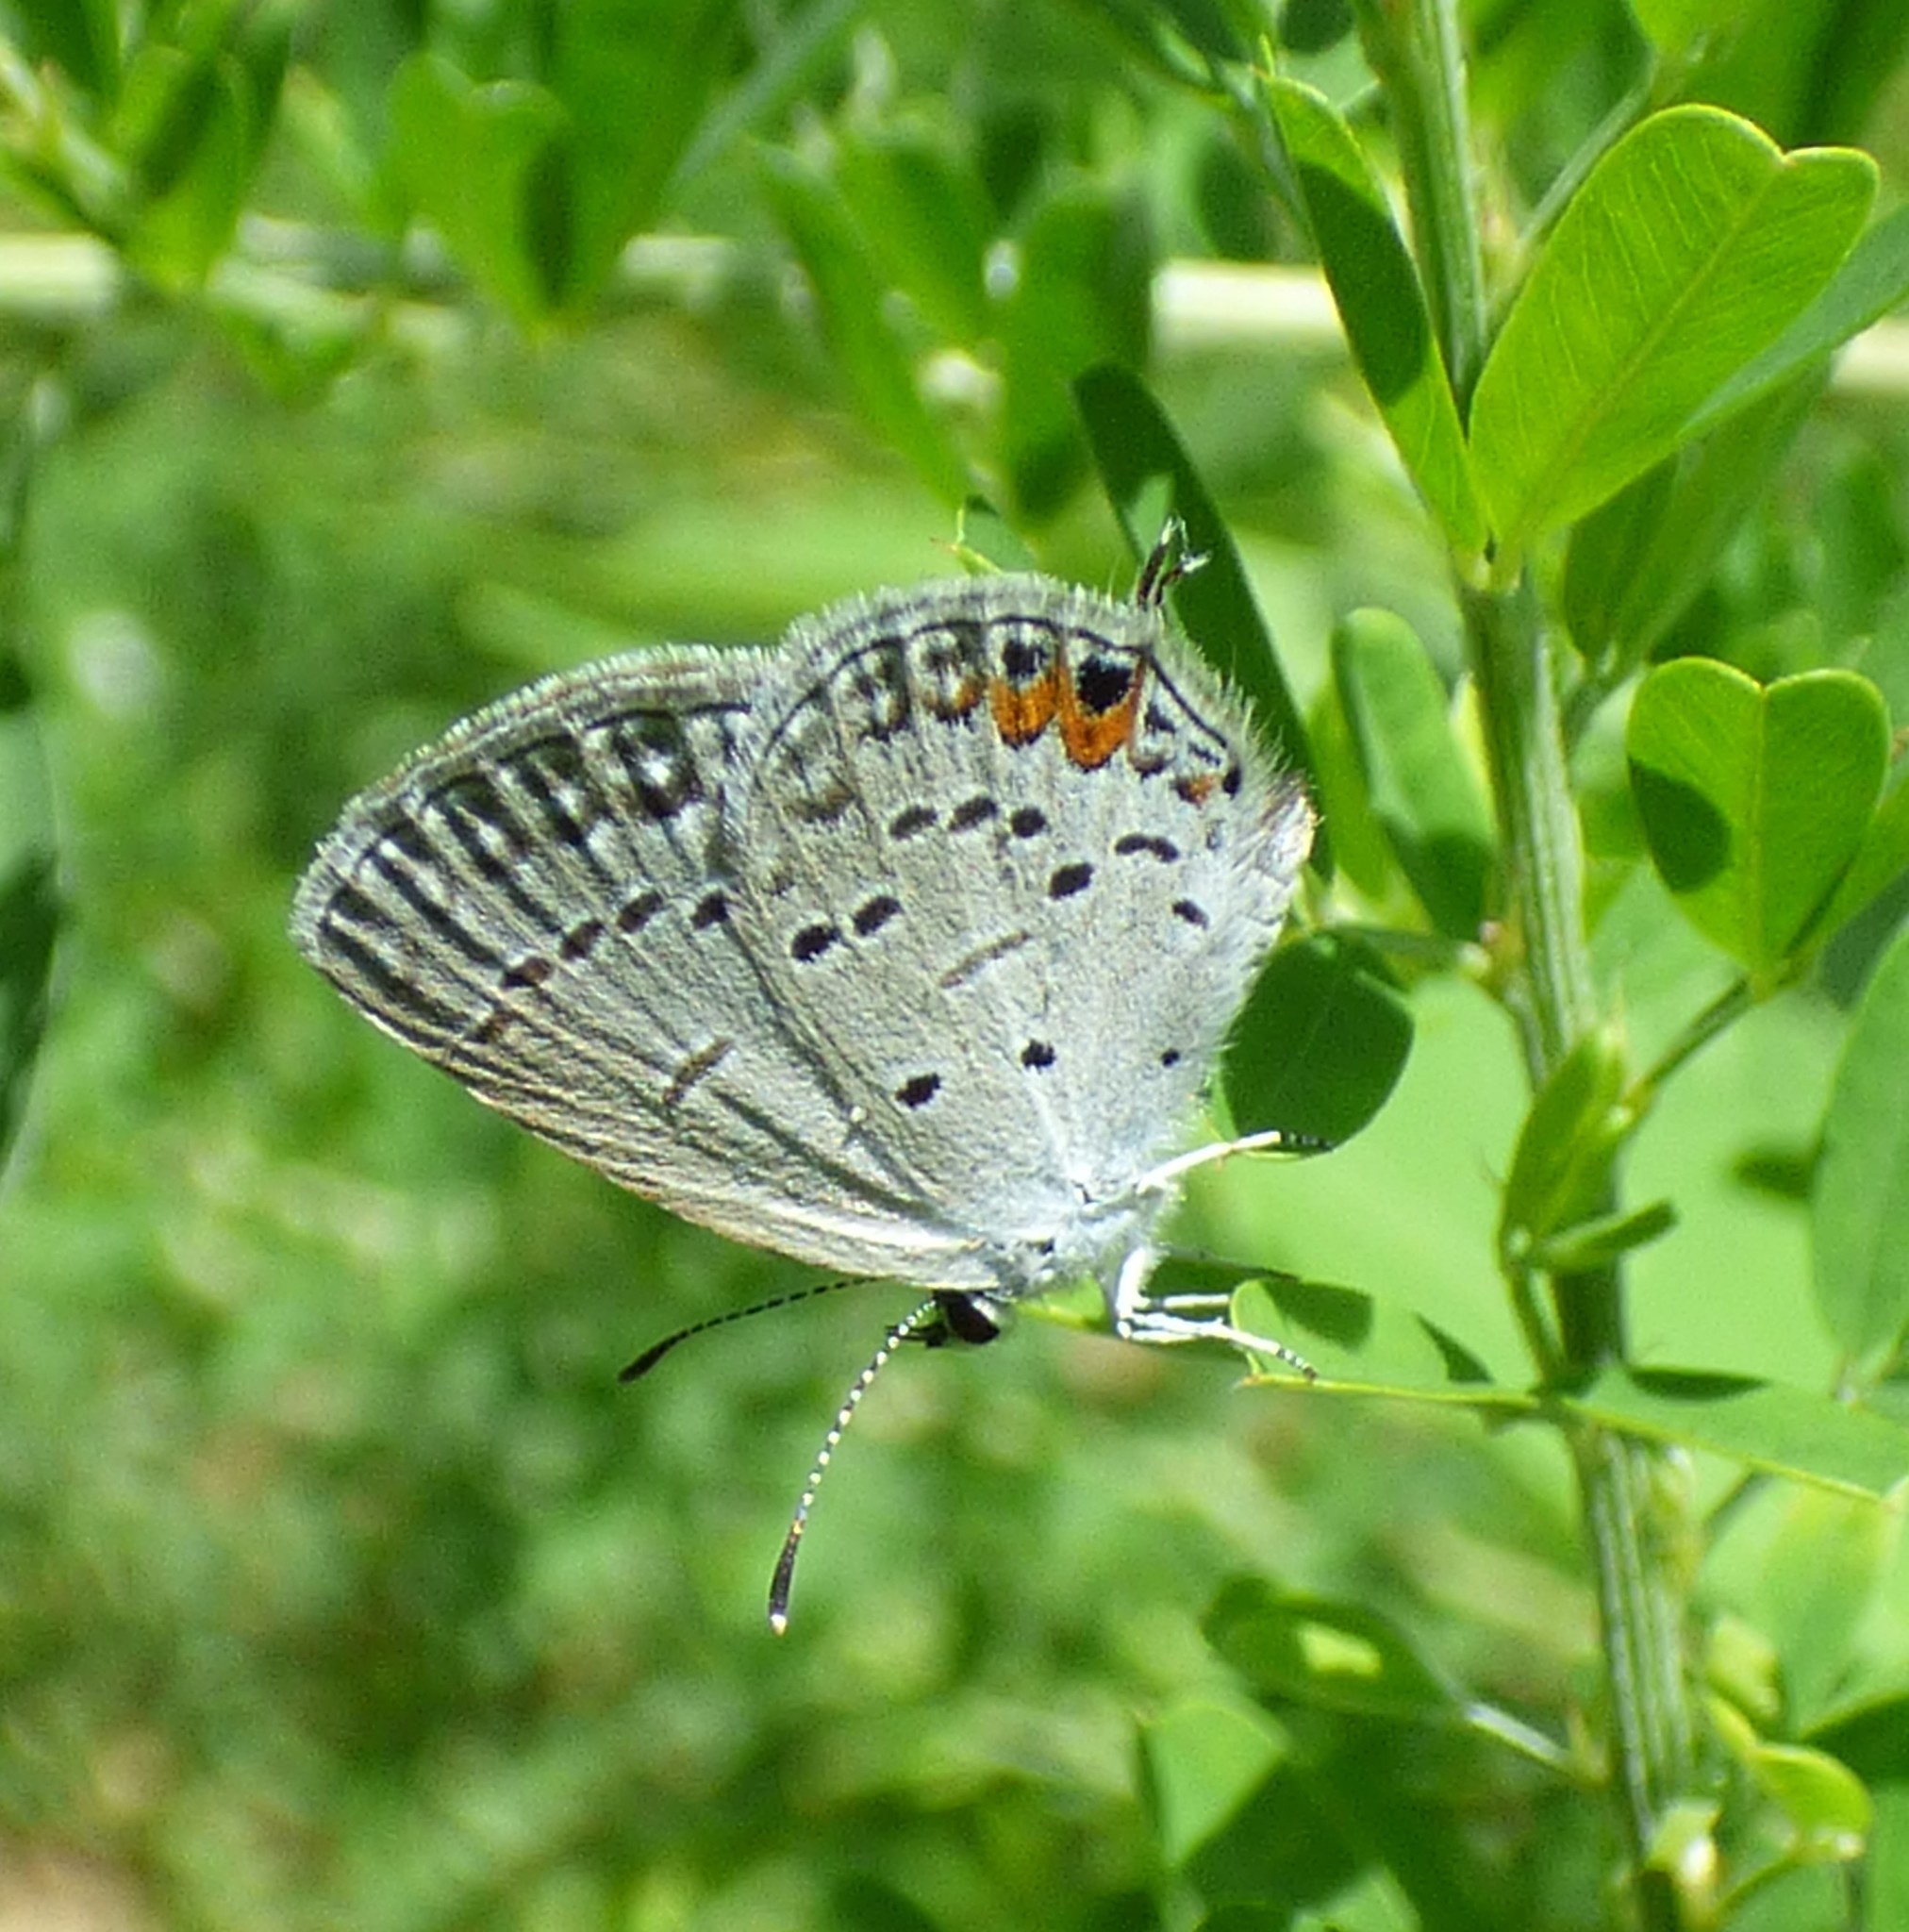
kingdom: Animalia
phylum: Arthropoda
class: Insecta
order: Lepidoptera
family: Lycaenidae
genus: Elkalyce
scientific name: Elkalyce comyntas
